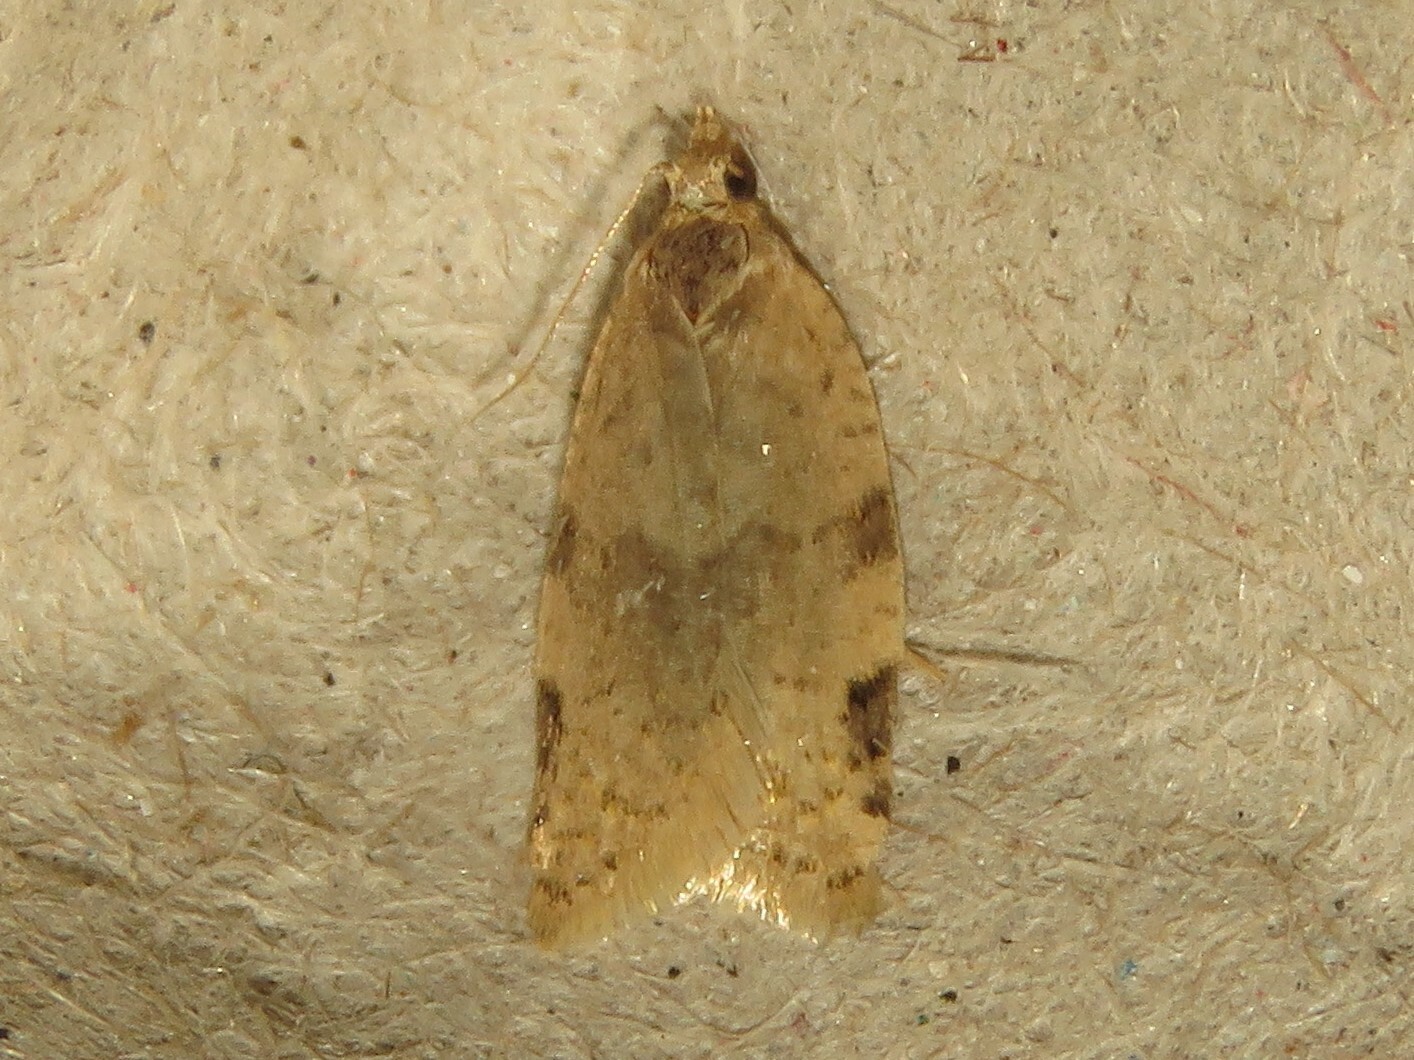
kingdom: Animalia
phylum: Arthropoda
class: Insecta
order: Lepidoptera
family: Tortricidae
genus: Clepsis
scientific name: Clepsis virescana
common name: Greenish apple moth
